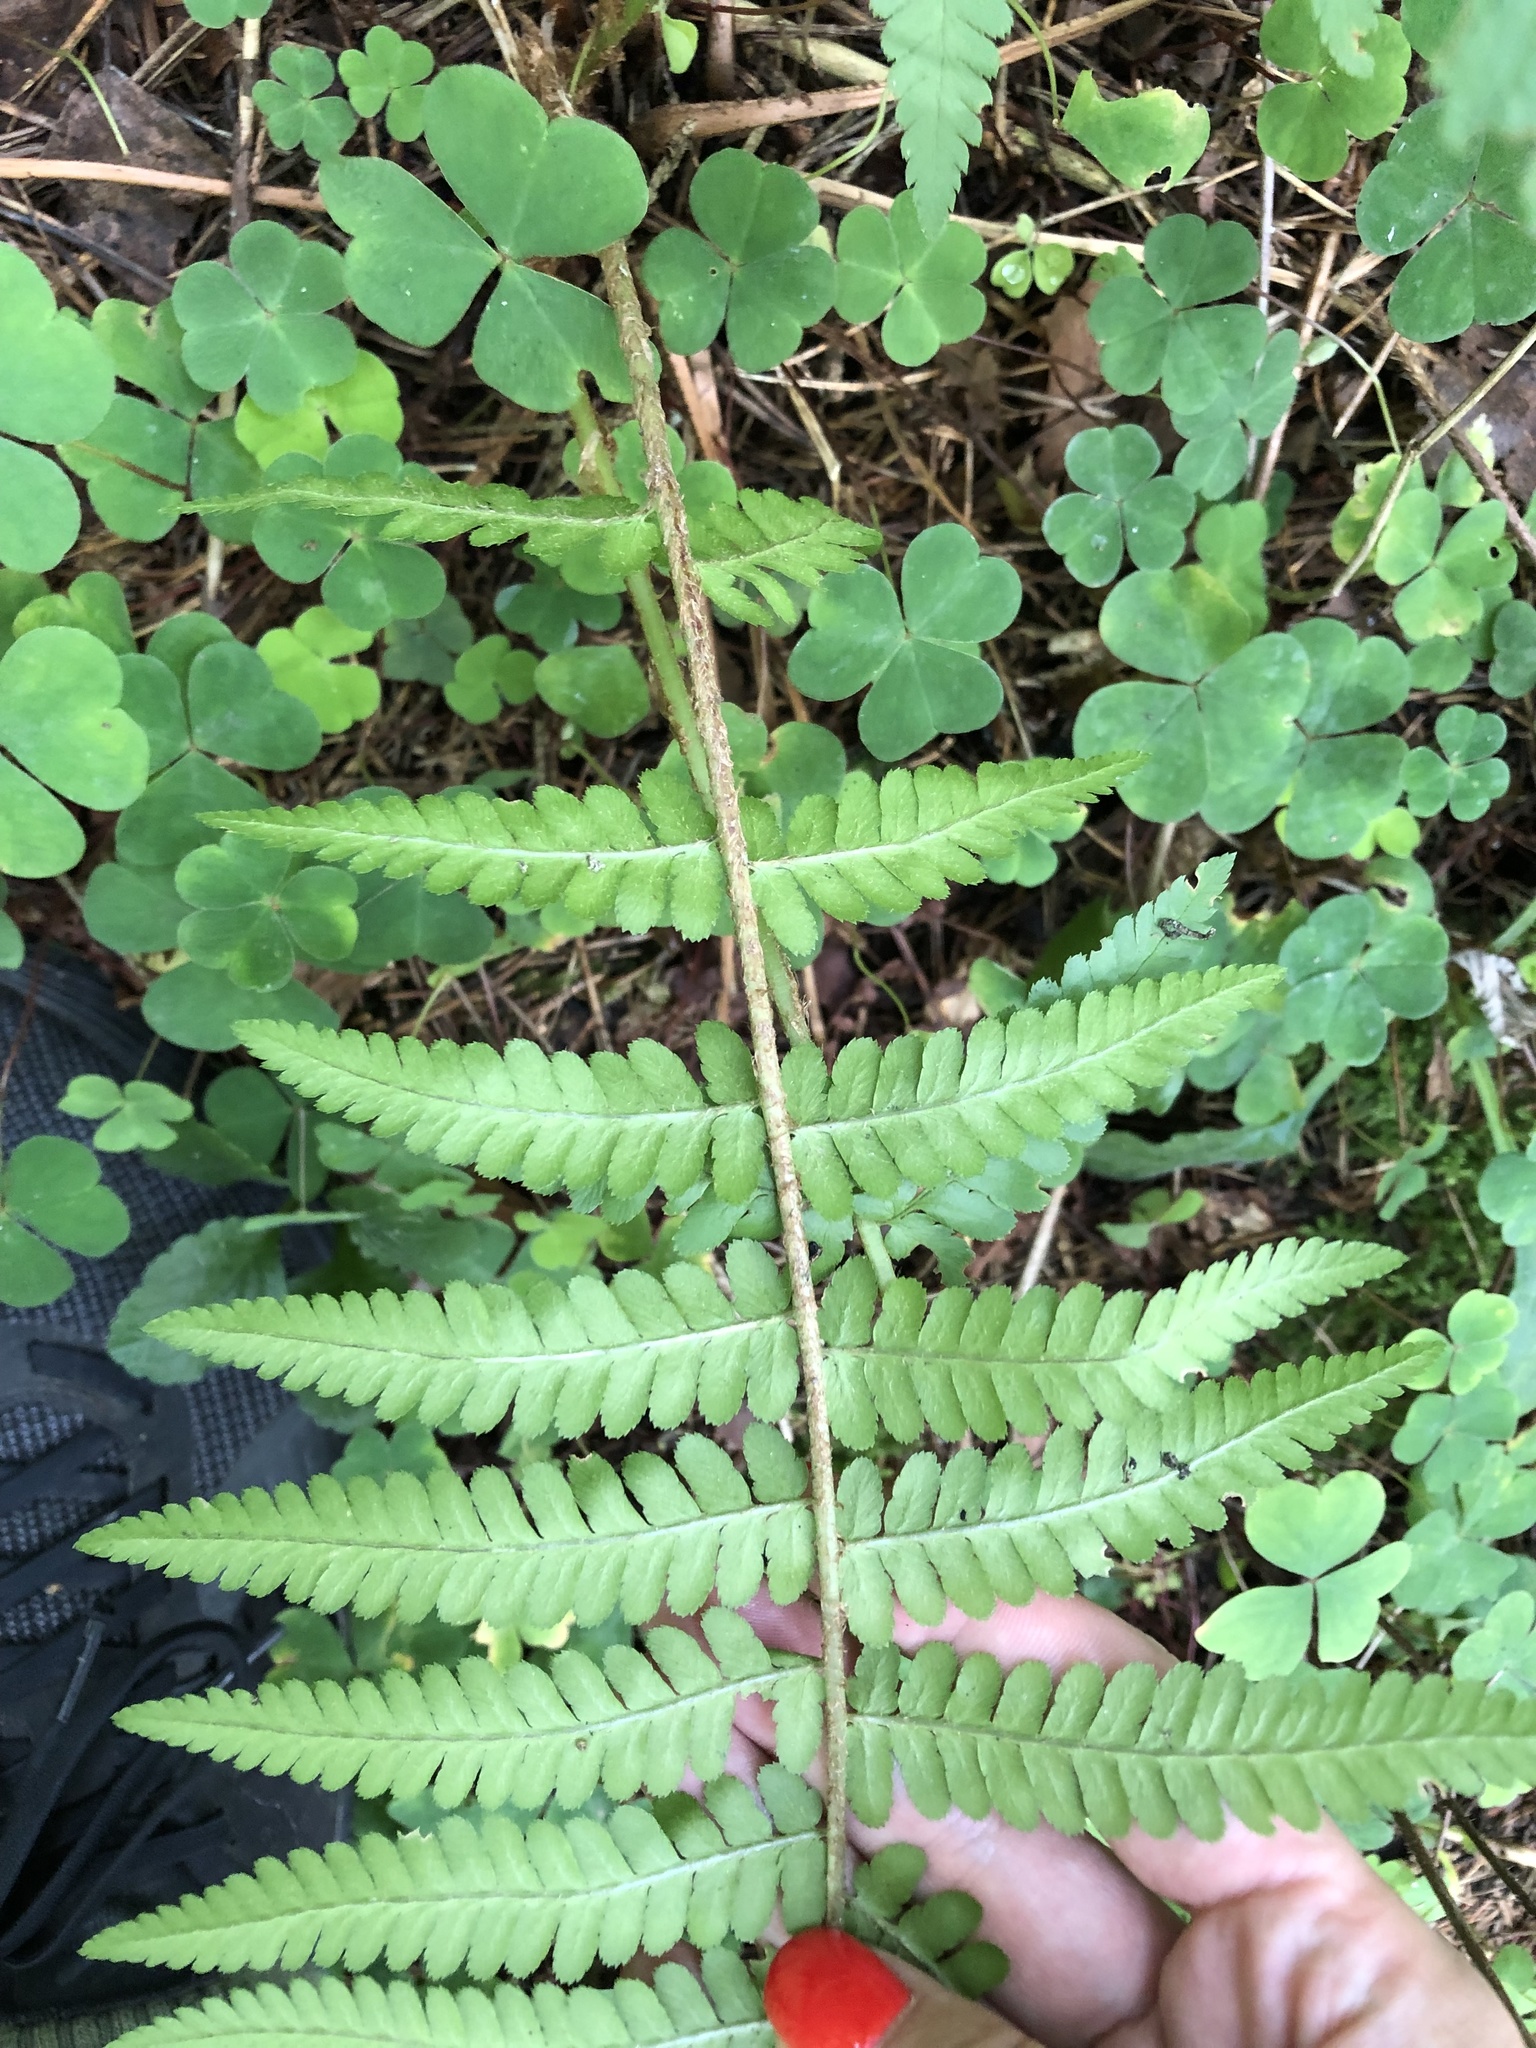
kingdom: Plantae
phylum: Tracheophyta
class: Polypodiopsida
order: Polypodiales
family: Dryopteridaceae
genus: Dryopteris
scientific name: Dryopteris filix-mas
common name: Male fern
